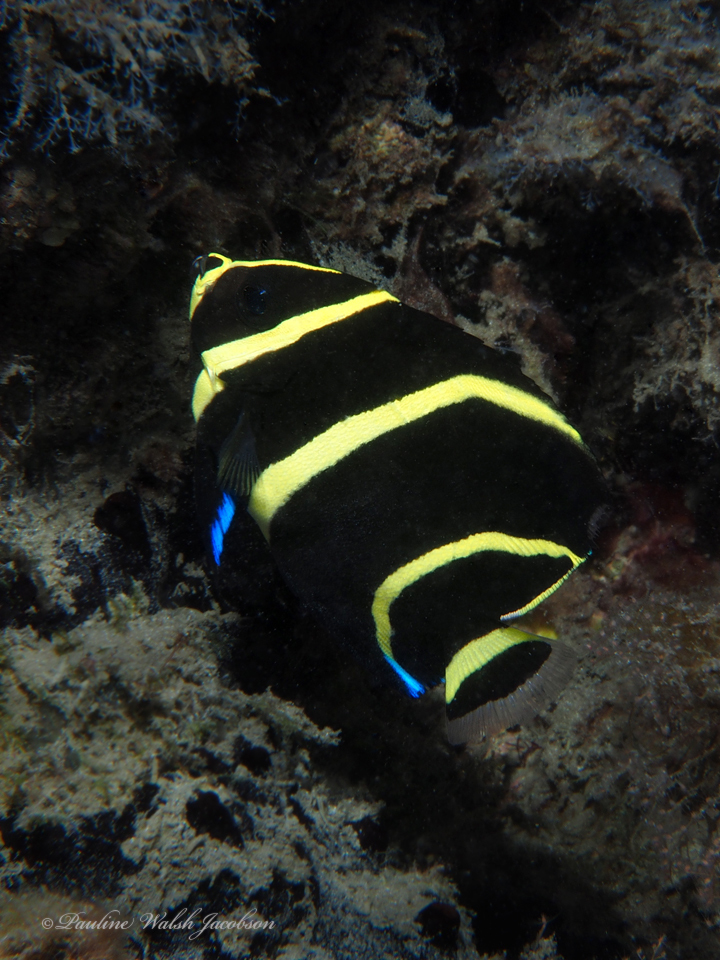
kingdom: Animalia
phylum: Chordata
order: Perciformes
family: Pomacanthidae
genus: Pomacanthus
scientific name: Pomacanthus arcuatus
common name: Gray angelfish
